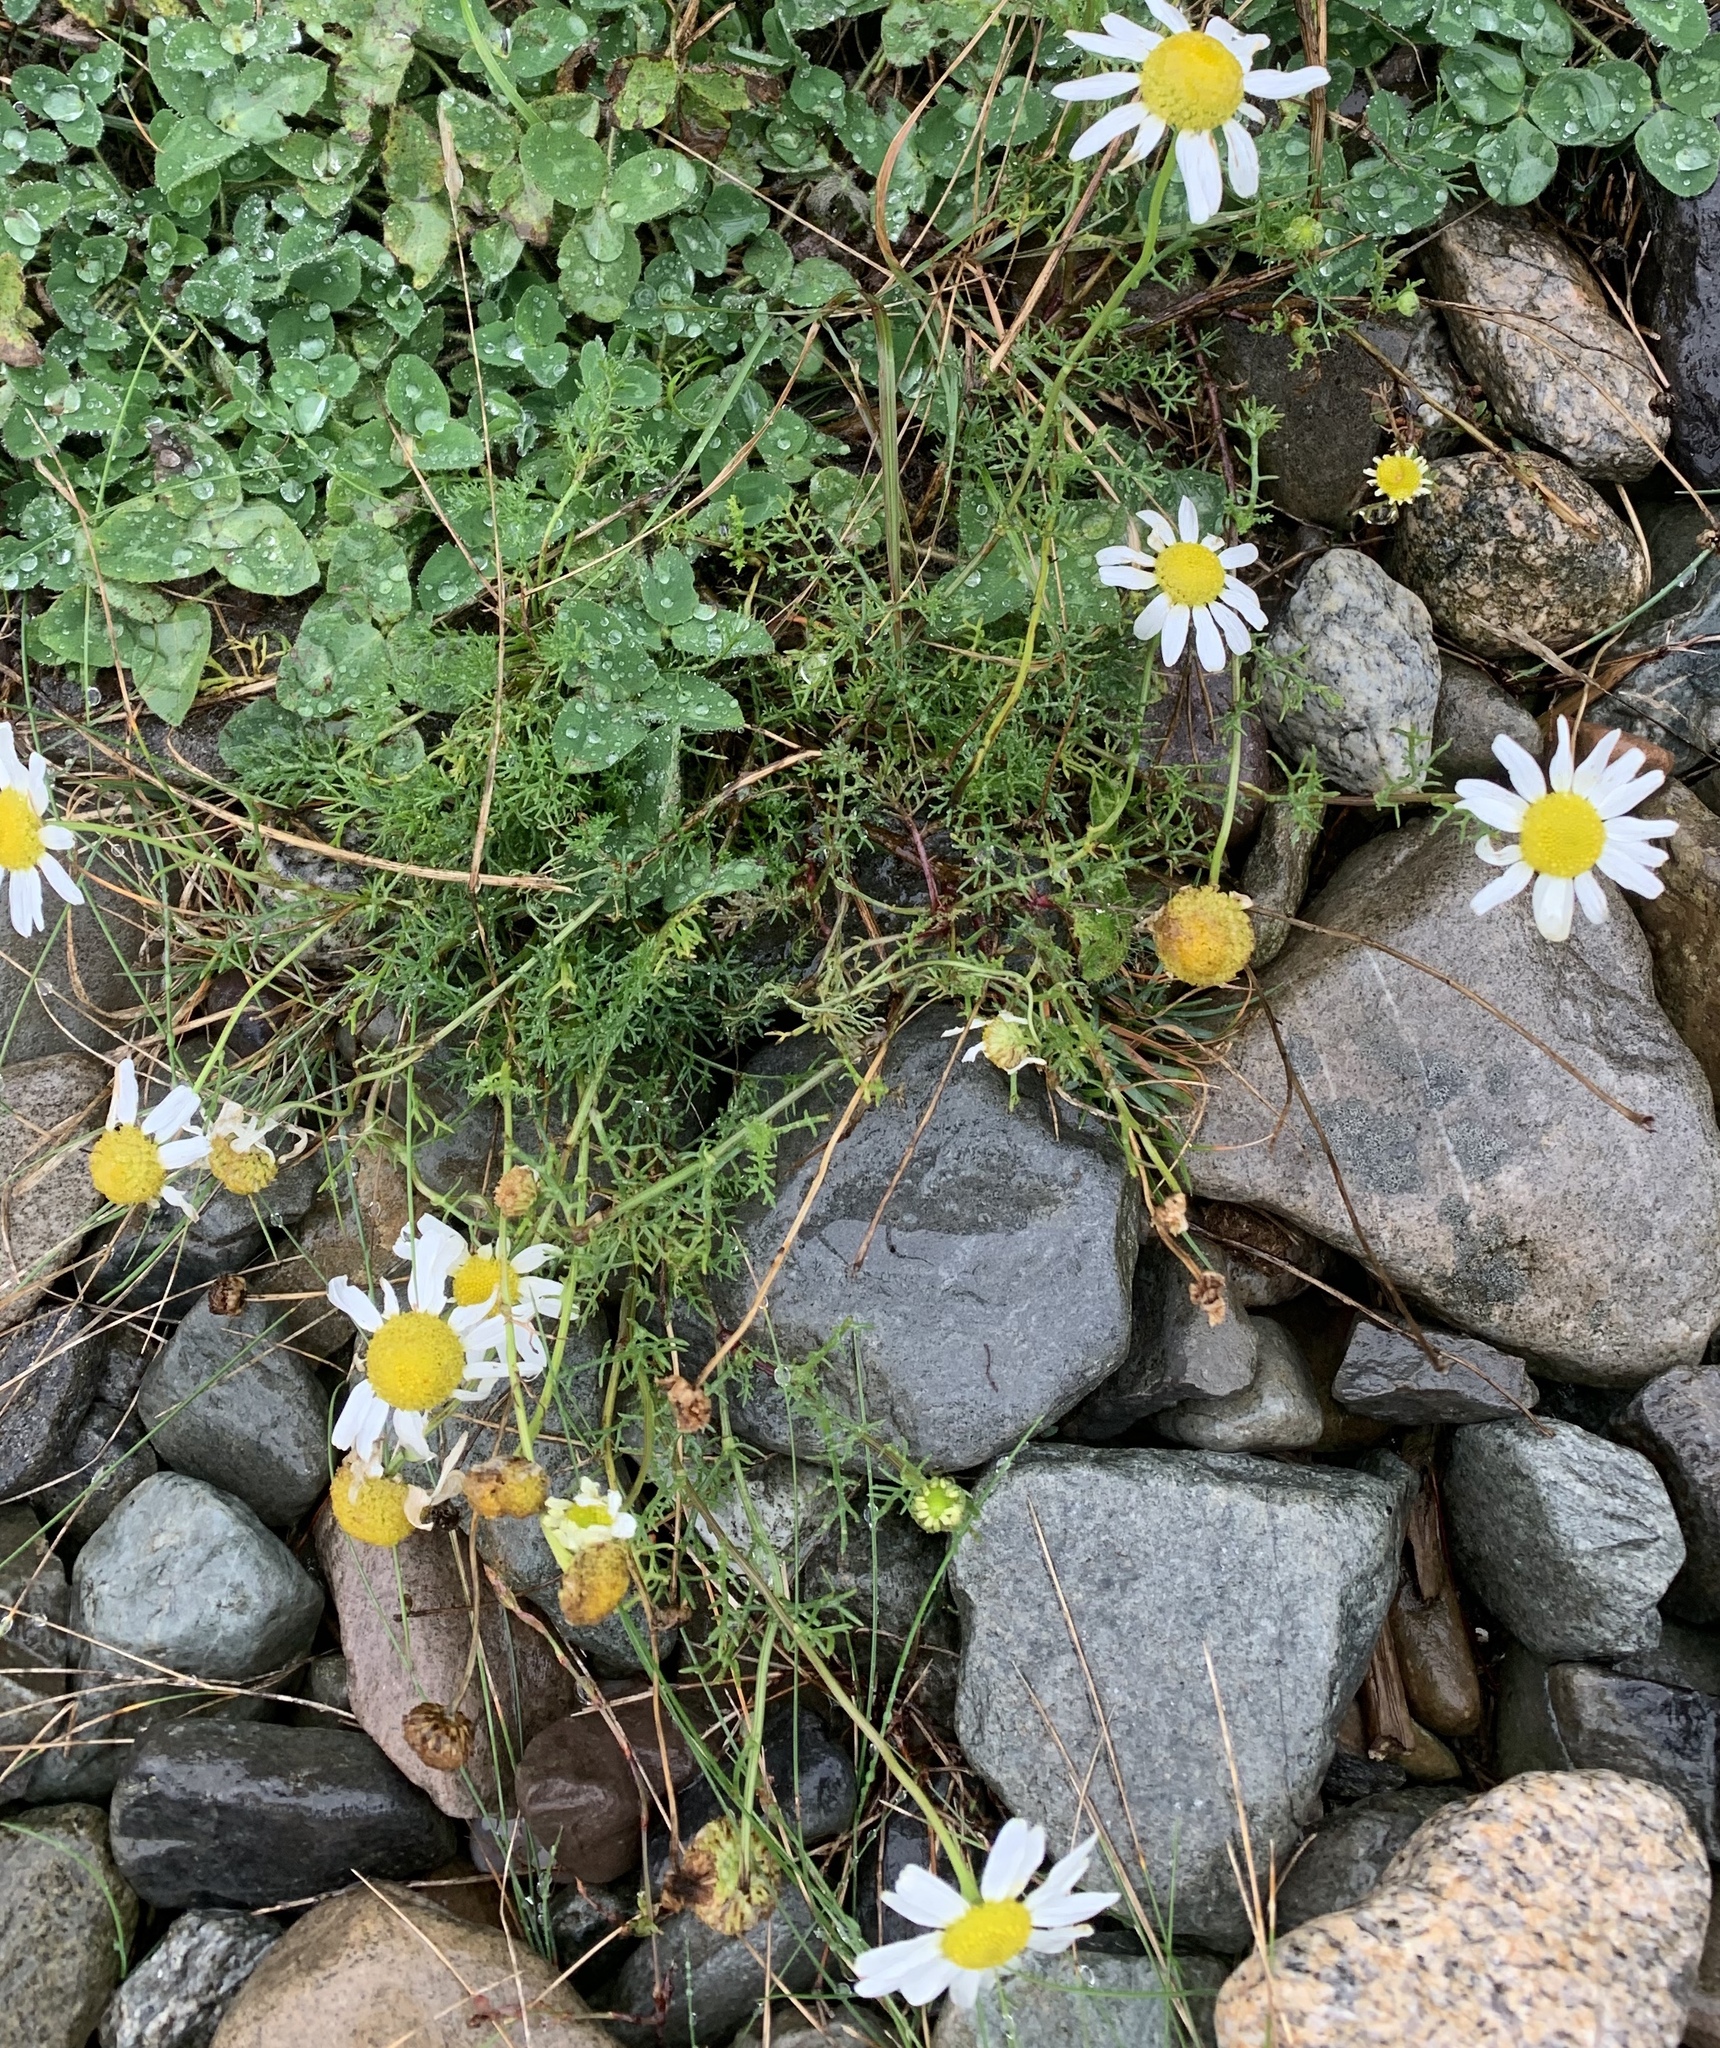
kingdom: Plantae
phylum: Tracheophyta
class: Magnoliopsida
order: Asterales
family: Asteraceae
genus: Tripleurospermum
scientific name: Tripleurospermum inodorum
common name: Scentless mayweed
